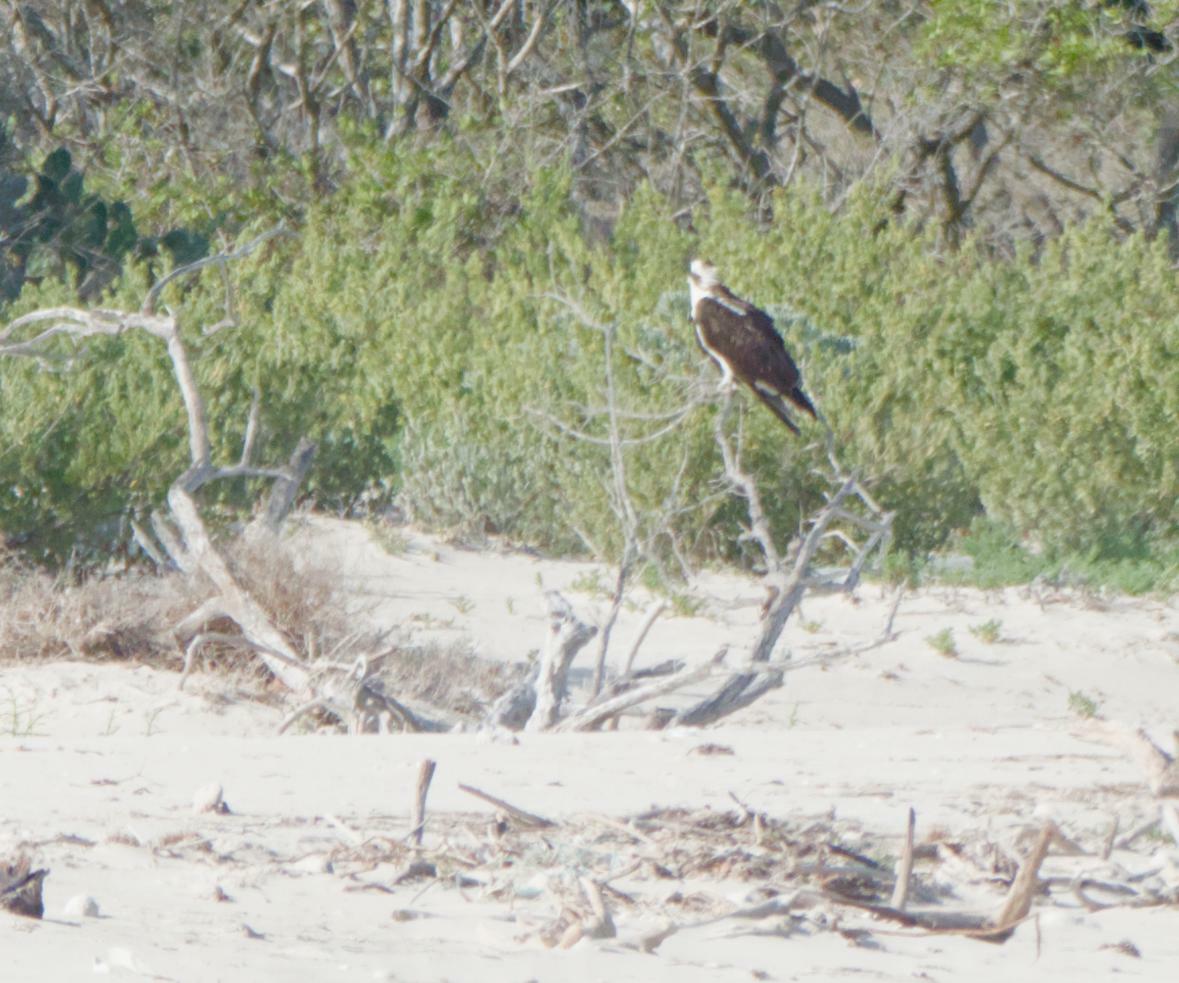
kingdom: Animalia
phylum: Chordata
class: Aves
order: Accipitriformes
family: Pandionidae
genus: Pandion
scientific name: Pandion haliaetus
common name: Osprey
